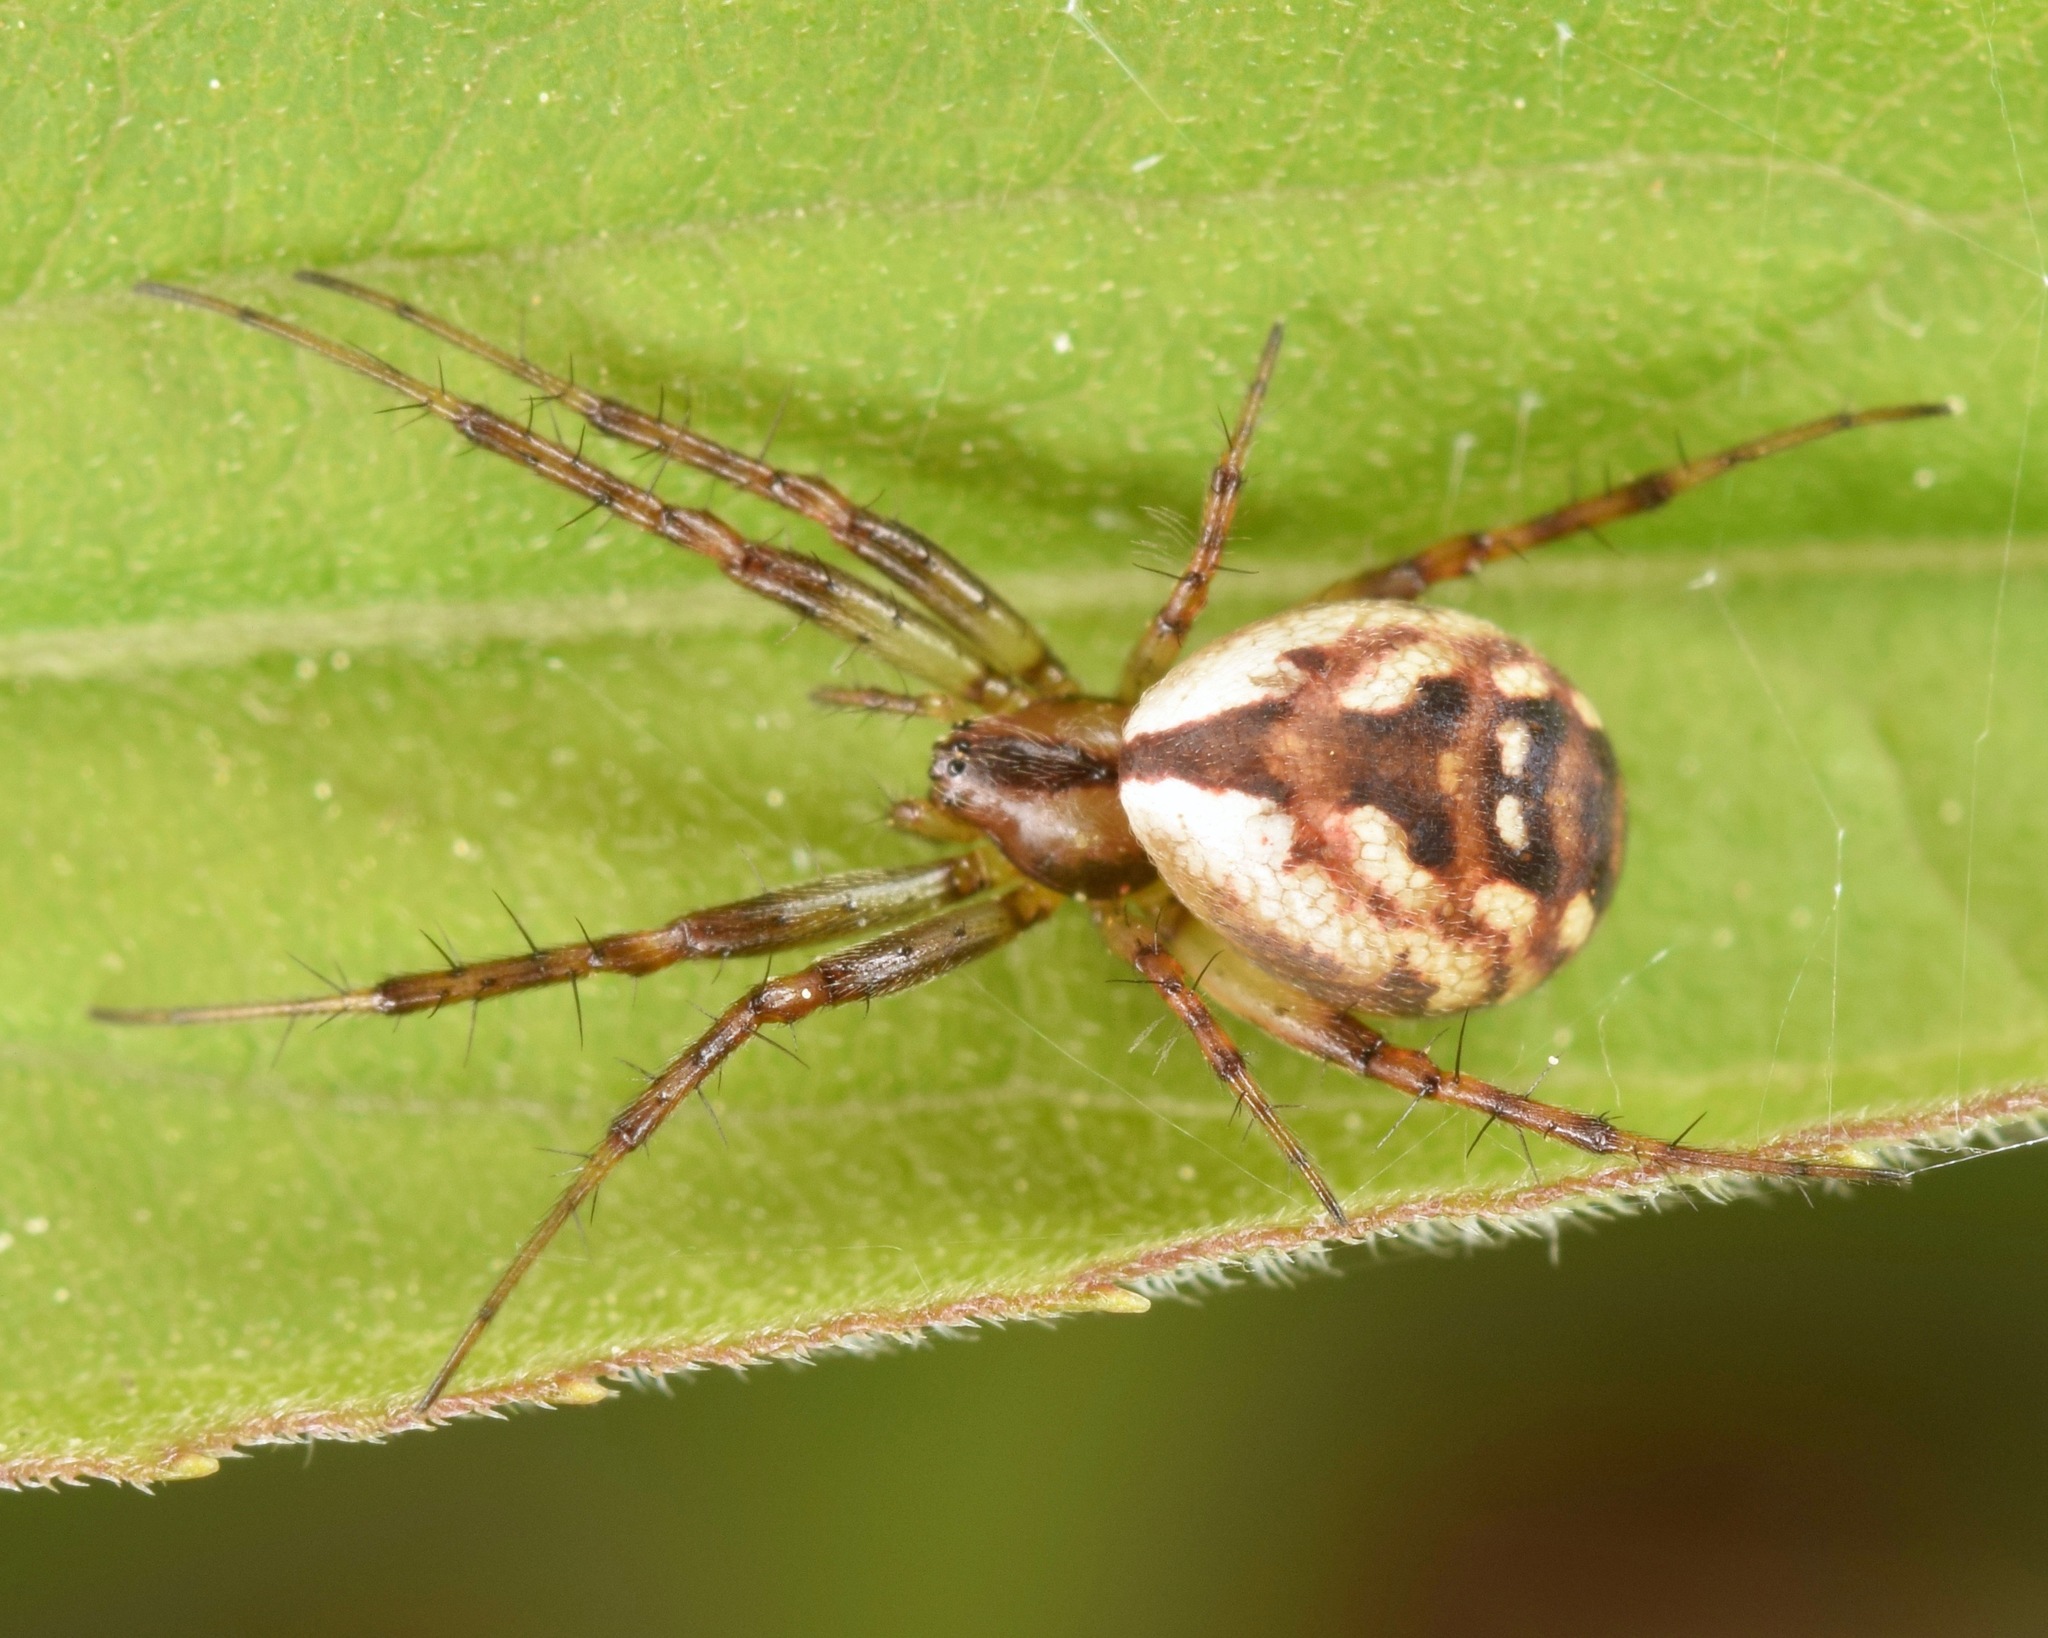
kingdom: Animalia
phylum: Arthropoda
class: Arachnida
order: Araneae
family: Araneidae
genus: Mangora
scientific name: Mangora placida
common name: Tuft-legged orbweaver
